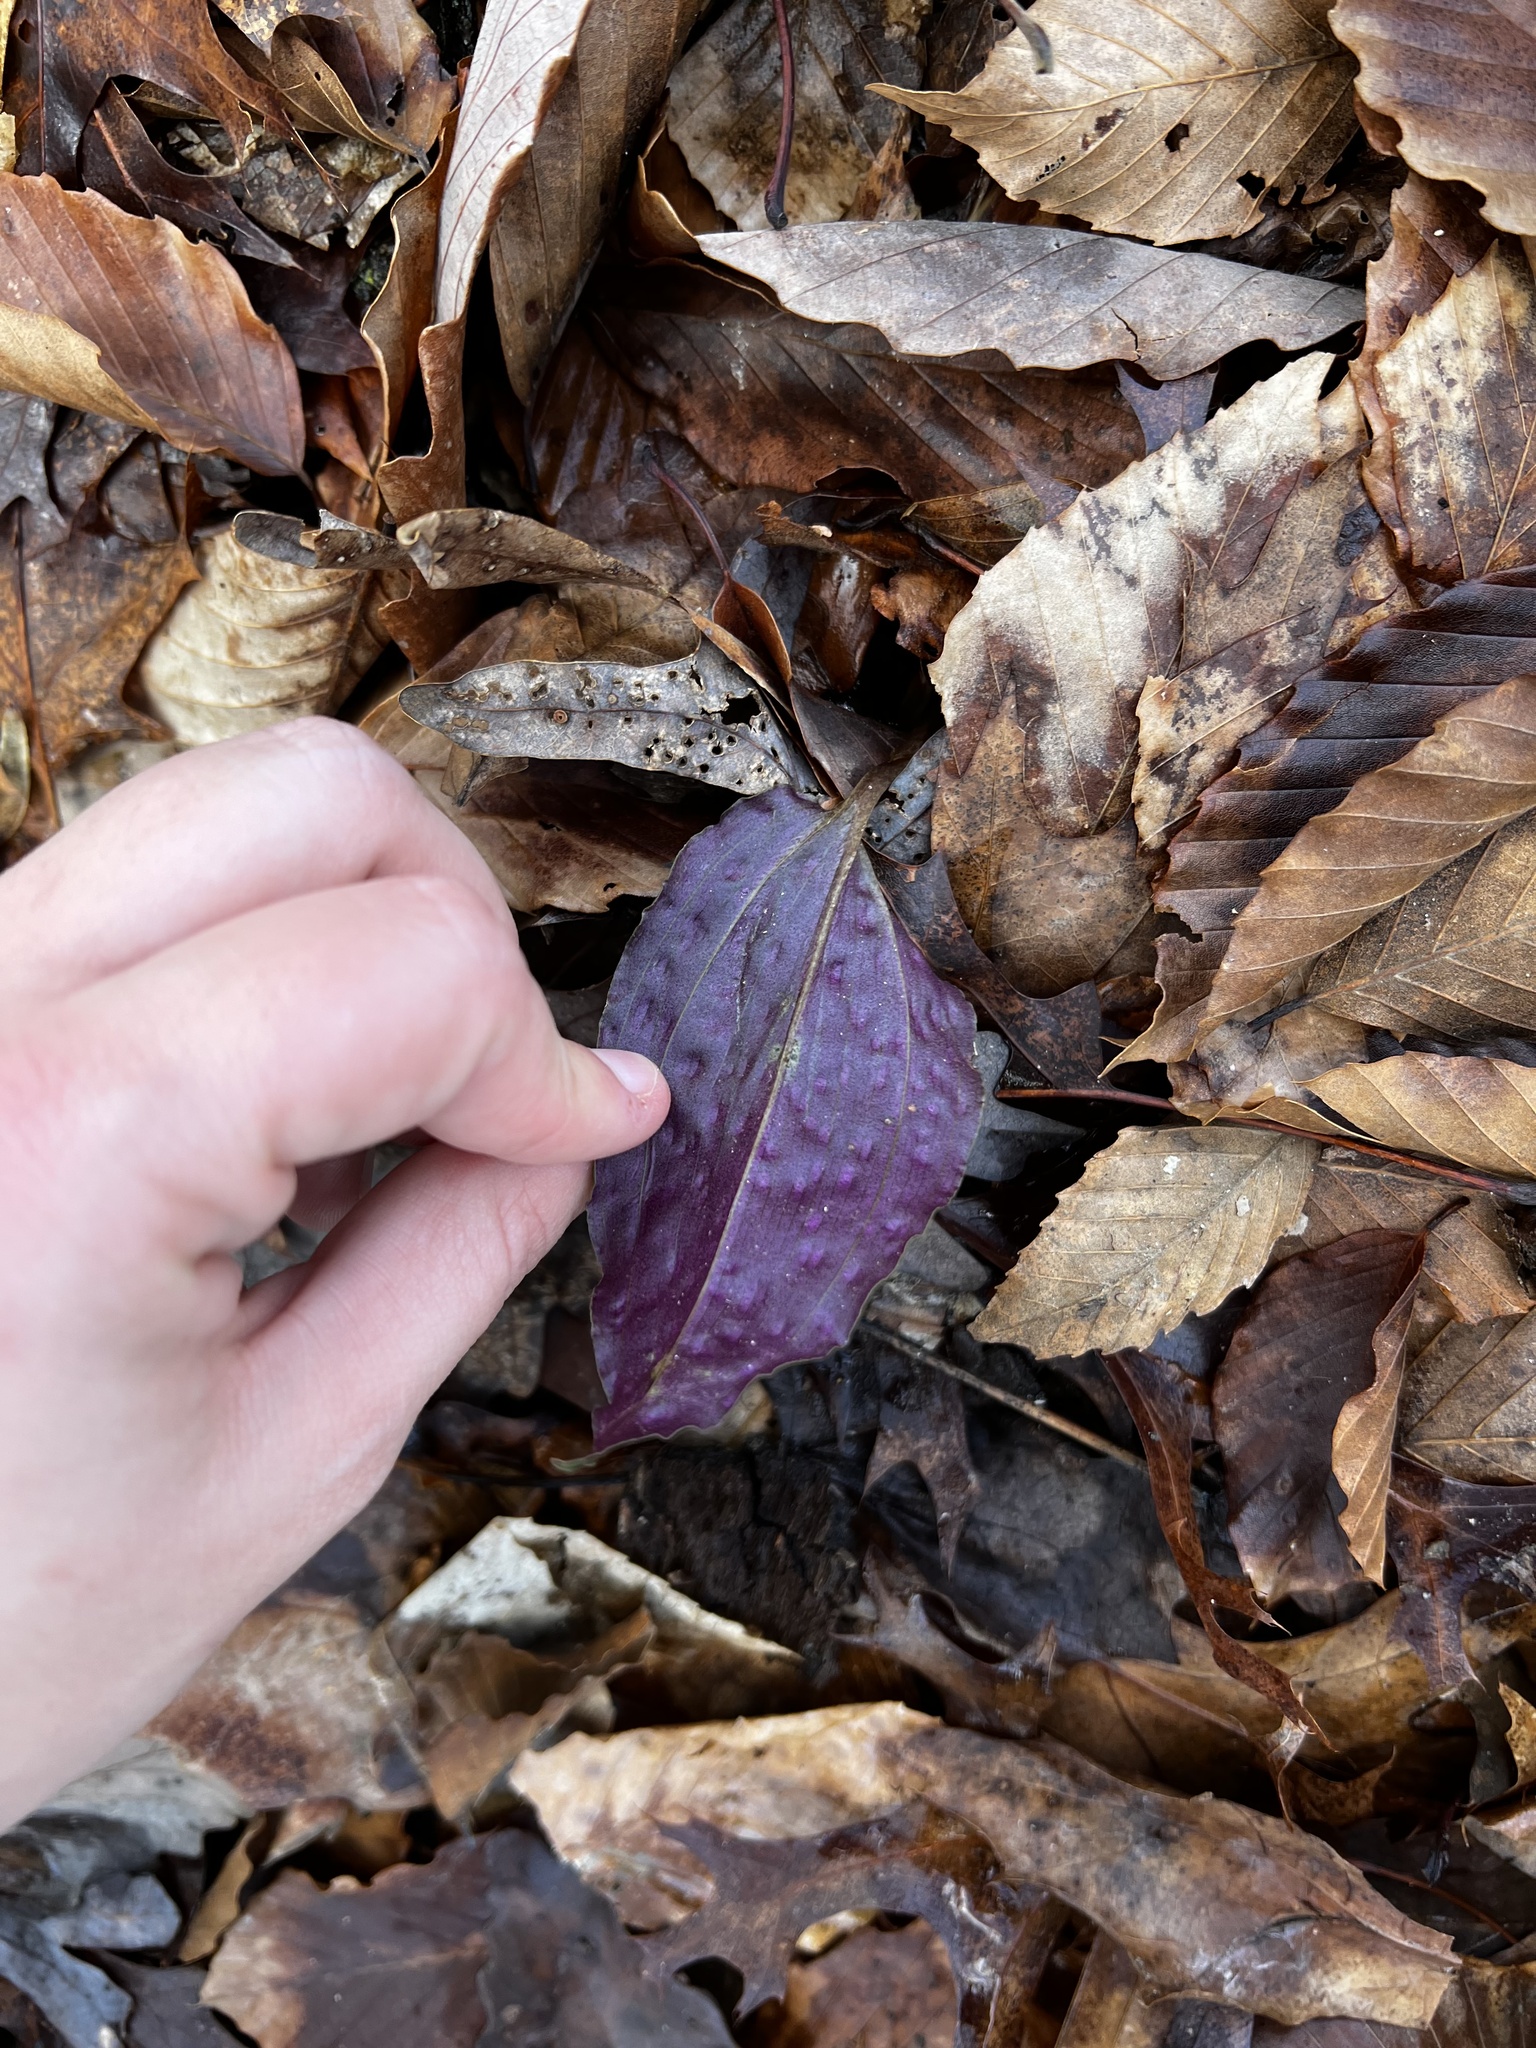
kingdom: Plantae
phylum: Tracheophyta
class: Liliopsida
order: Asparagales
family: Orchidaceae
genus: Tipularia
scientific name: Tipularia discolor
